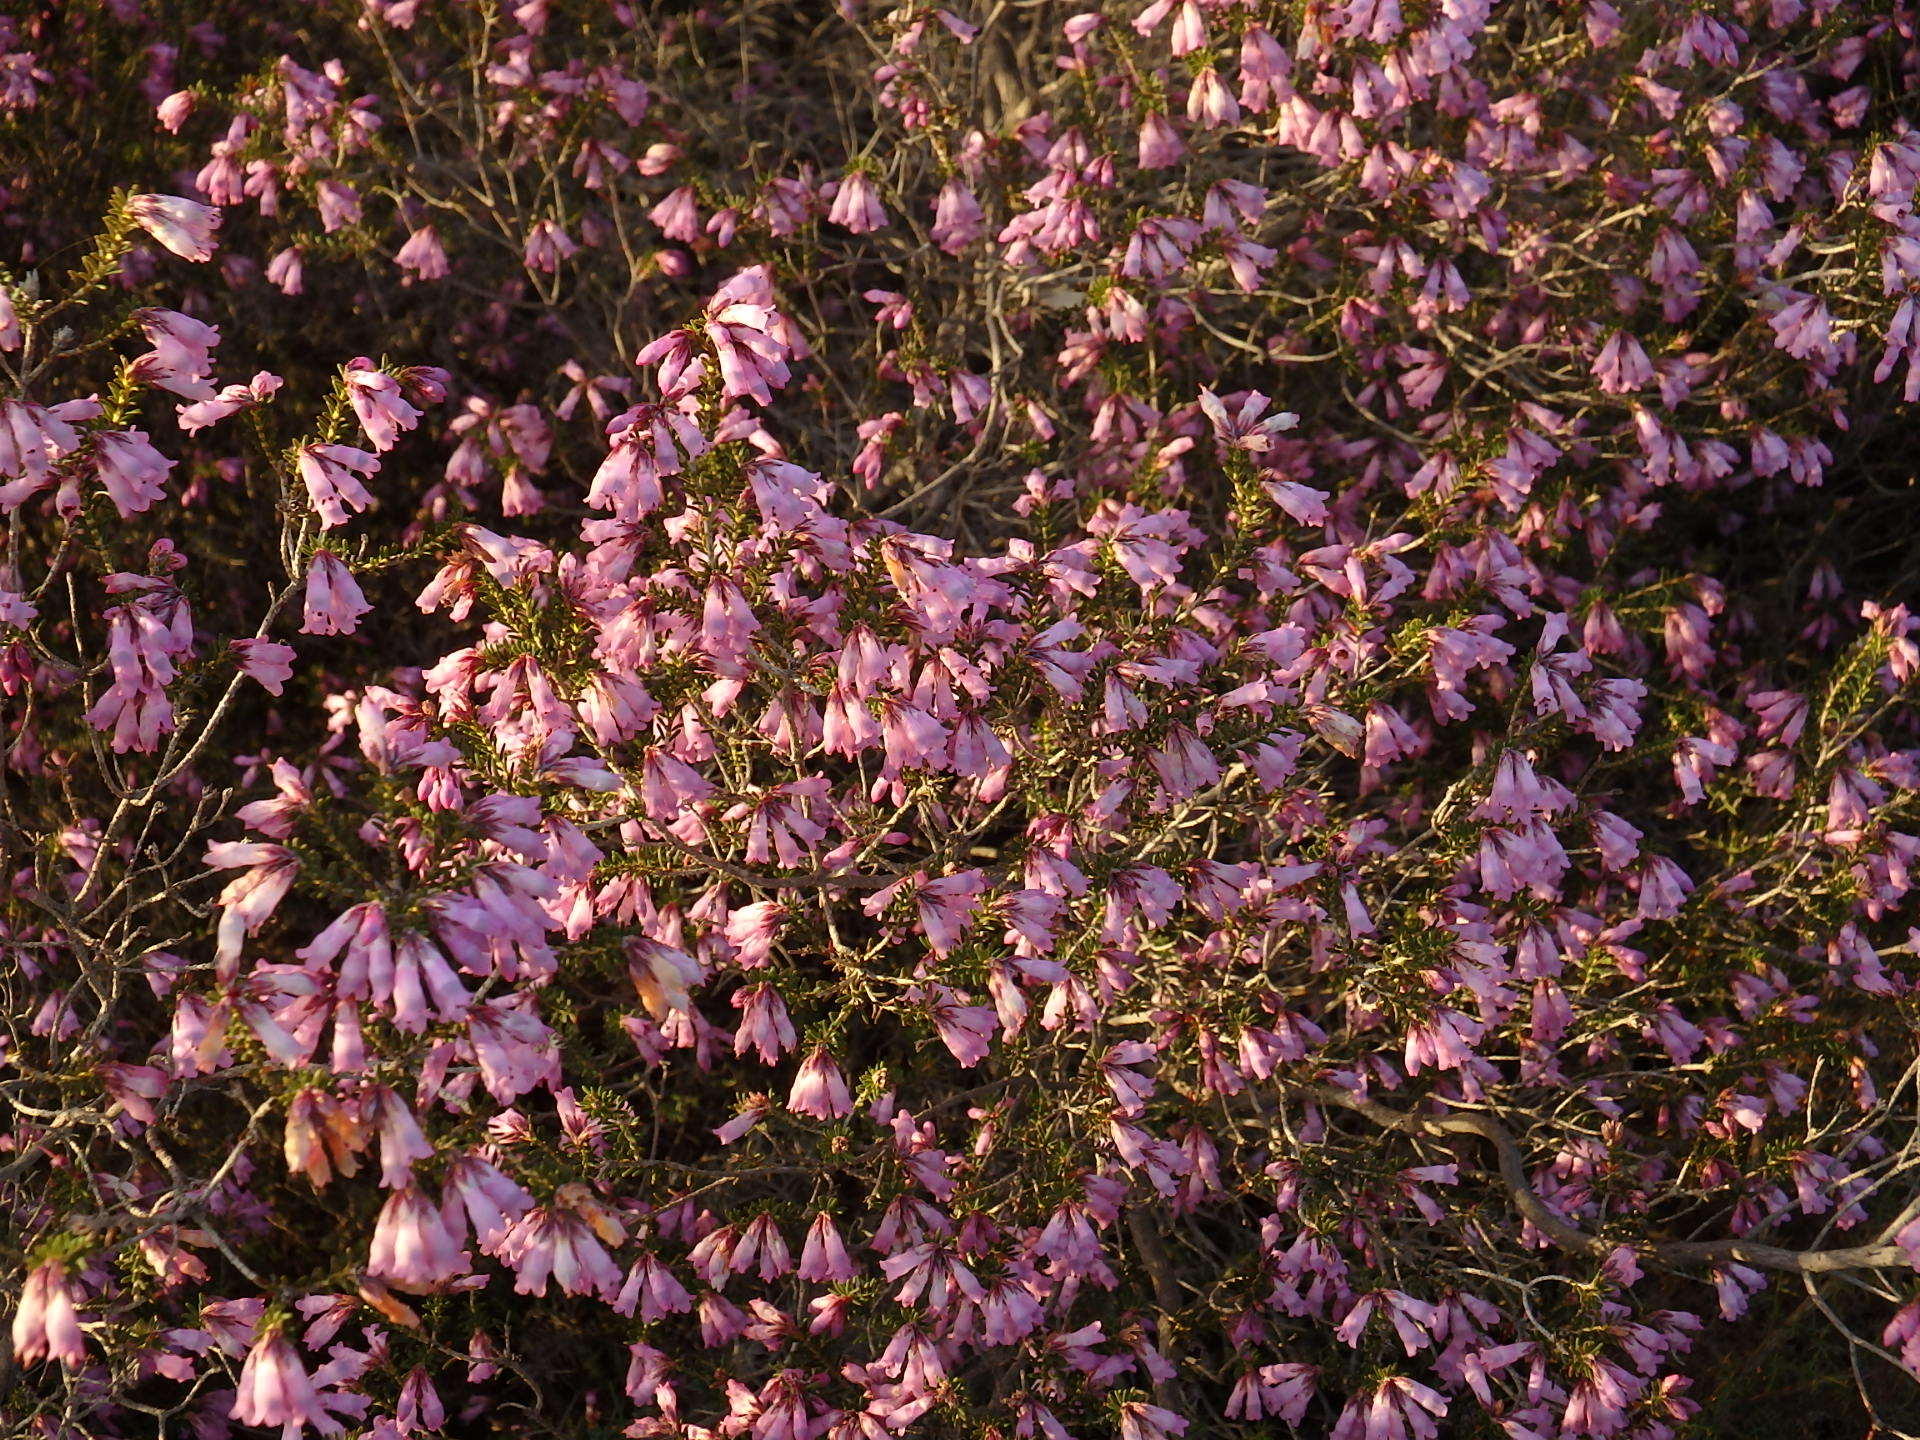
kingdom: Plantae
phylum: Tracheophyta
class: Magnoliopsida
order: Ericales
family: Ericaceae
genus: Erica
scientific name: Erica australis
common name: Spanish heath
